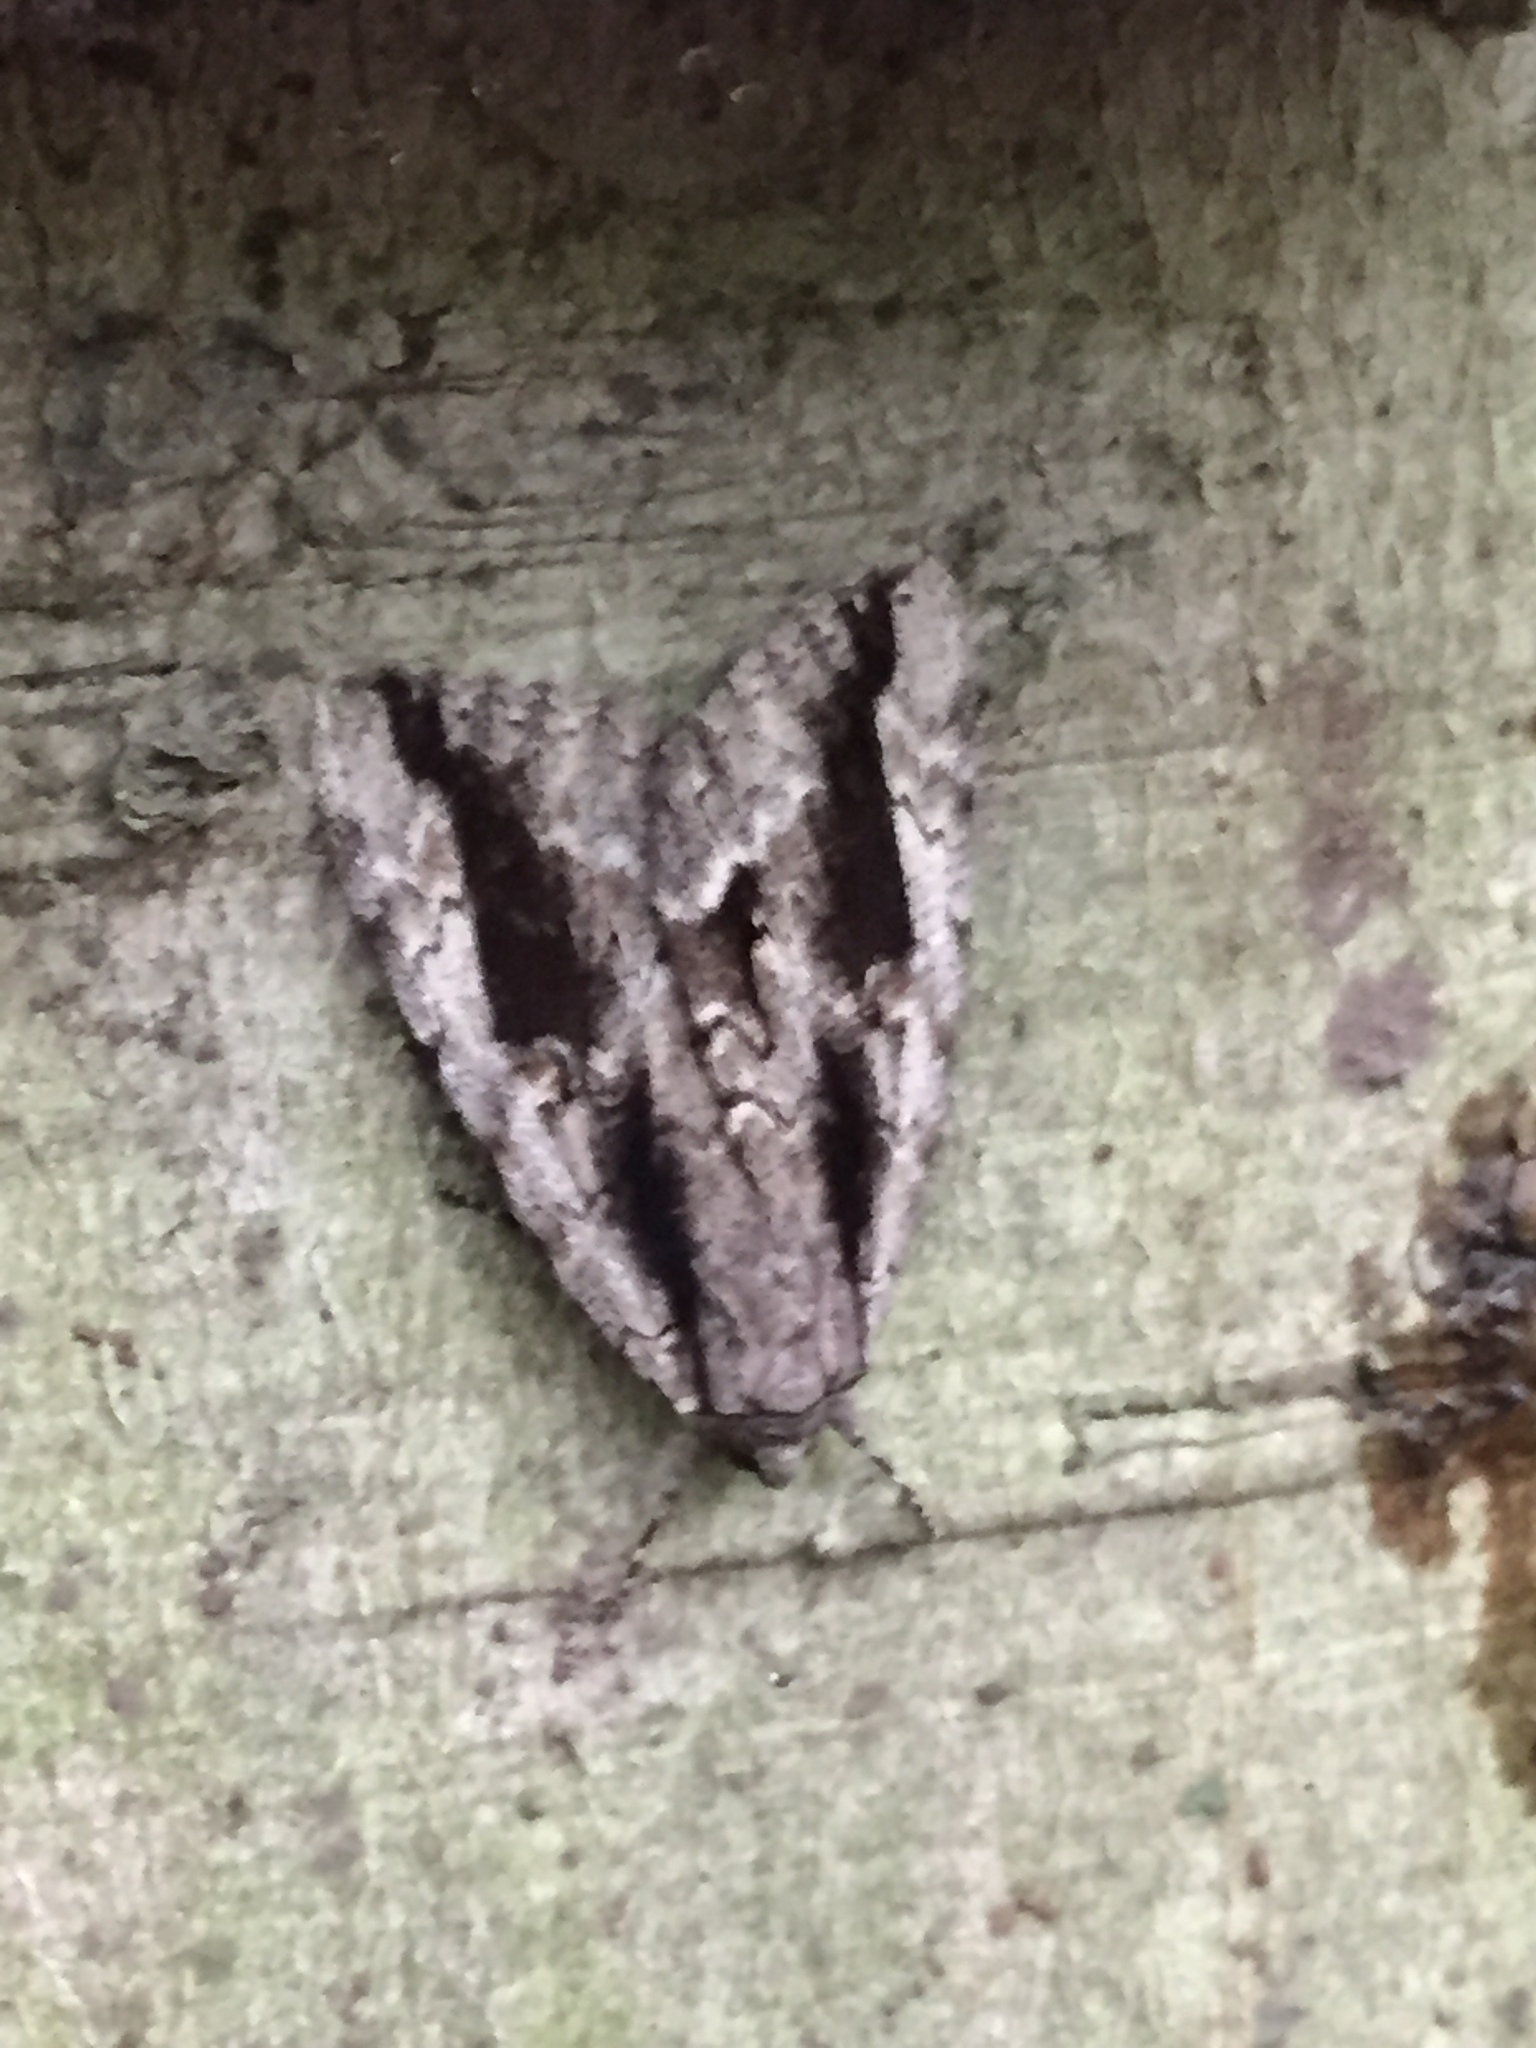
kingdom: Animalia
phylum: Arthropoda
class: Insecta
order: Lepidoptera
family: Erebidae
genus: Catocala
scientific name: Catocala angusi
